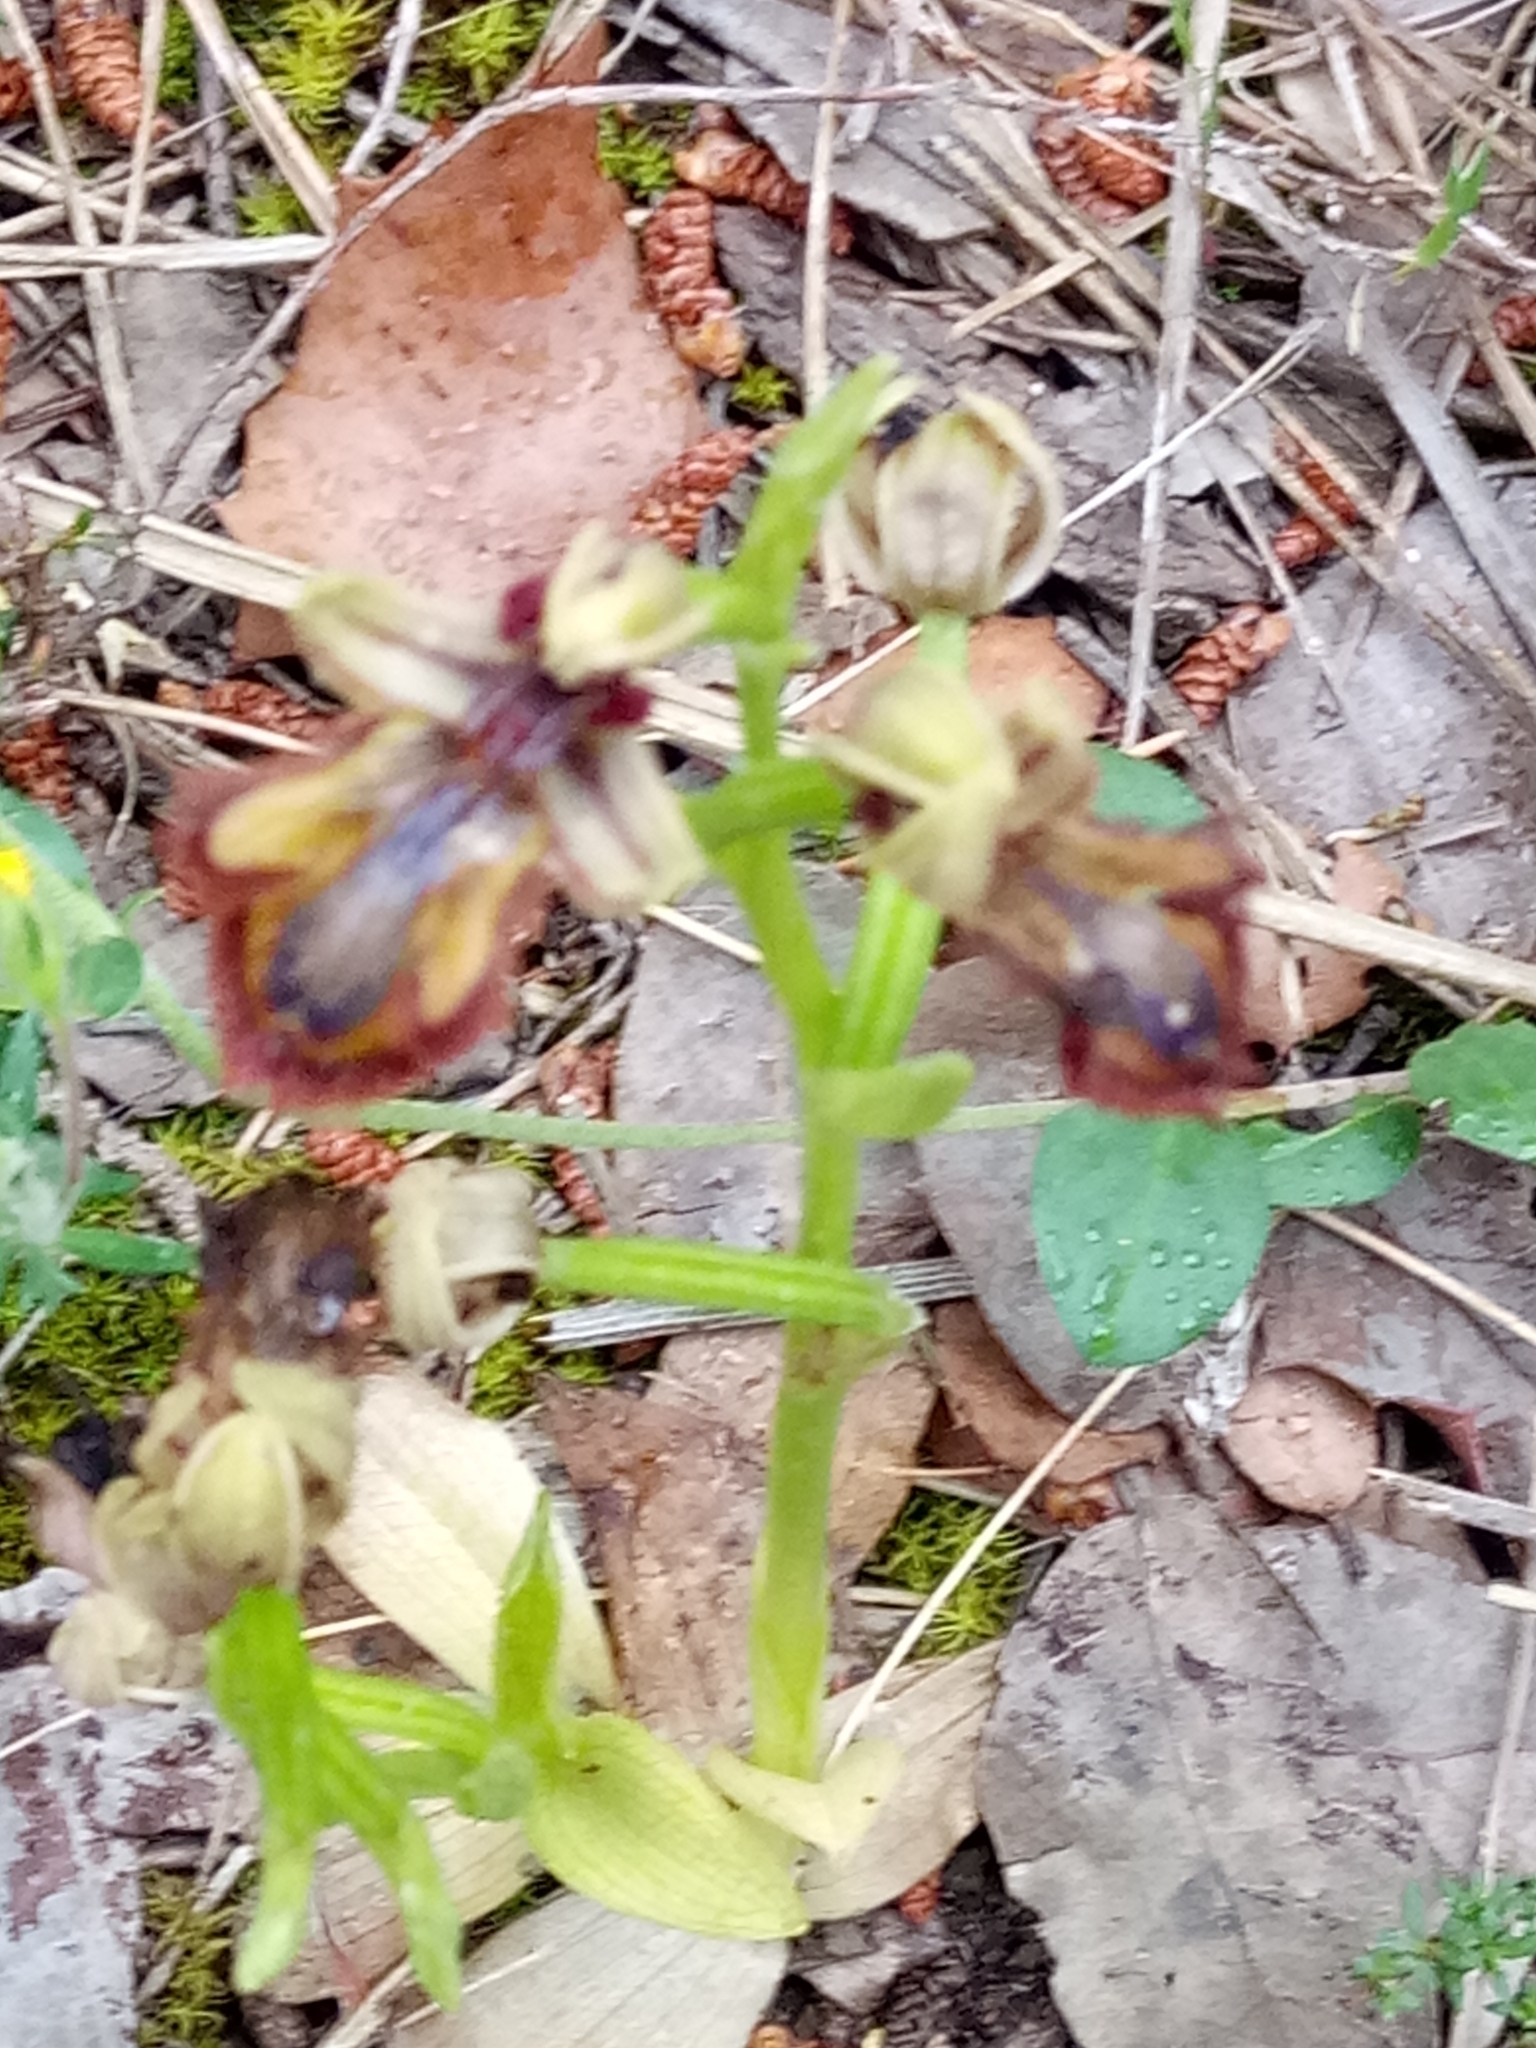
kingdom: Plantae
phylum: Tracheophyta
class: Liliopsida
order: Asparagales
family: Orchidaceae
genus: Ophrys
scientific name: Ophrys speculum
